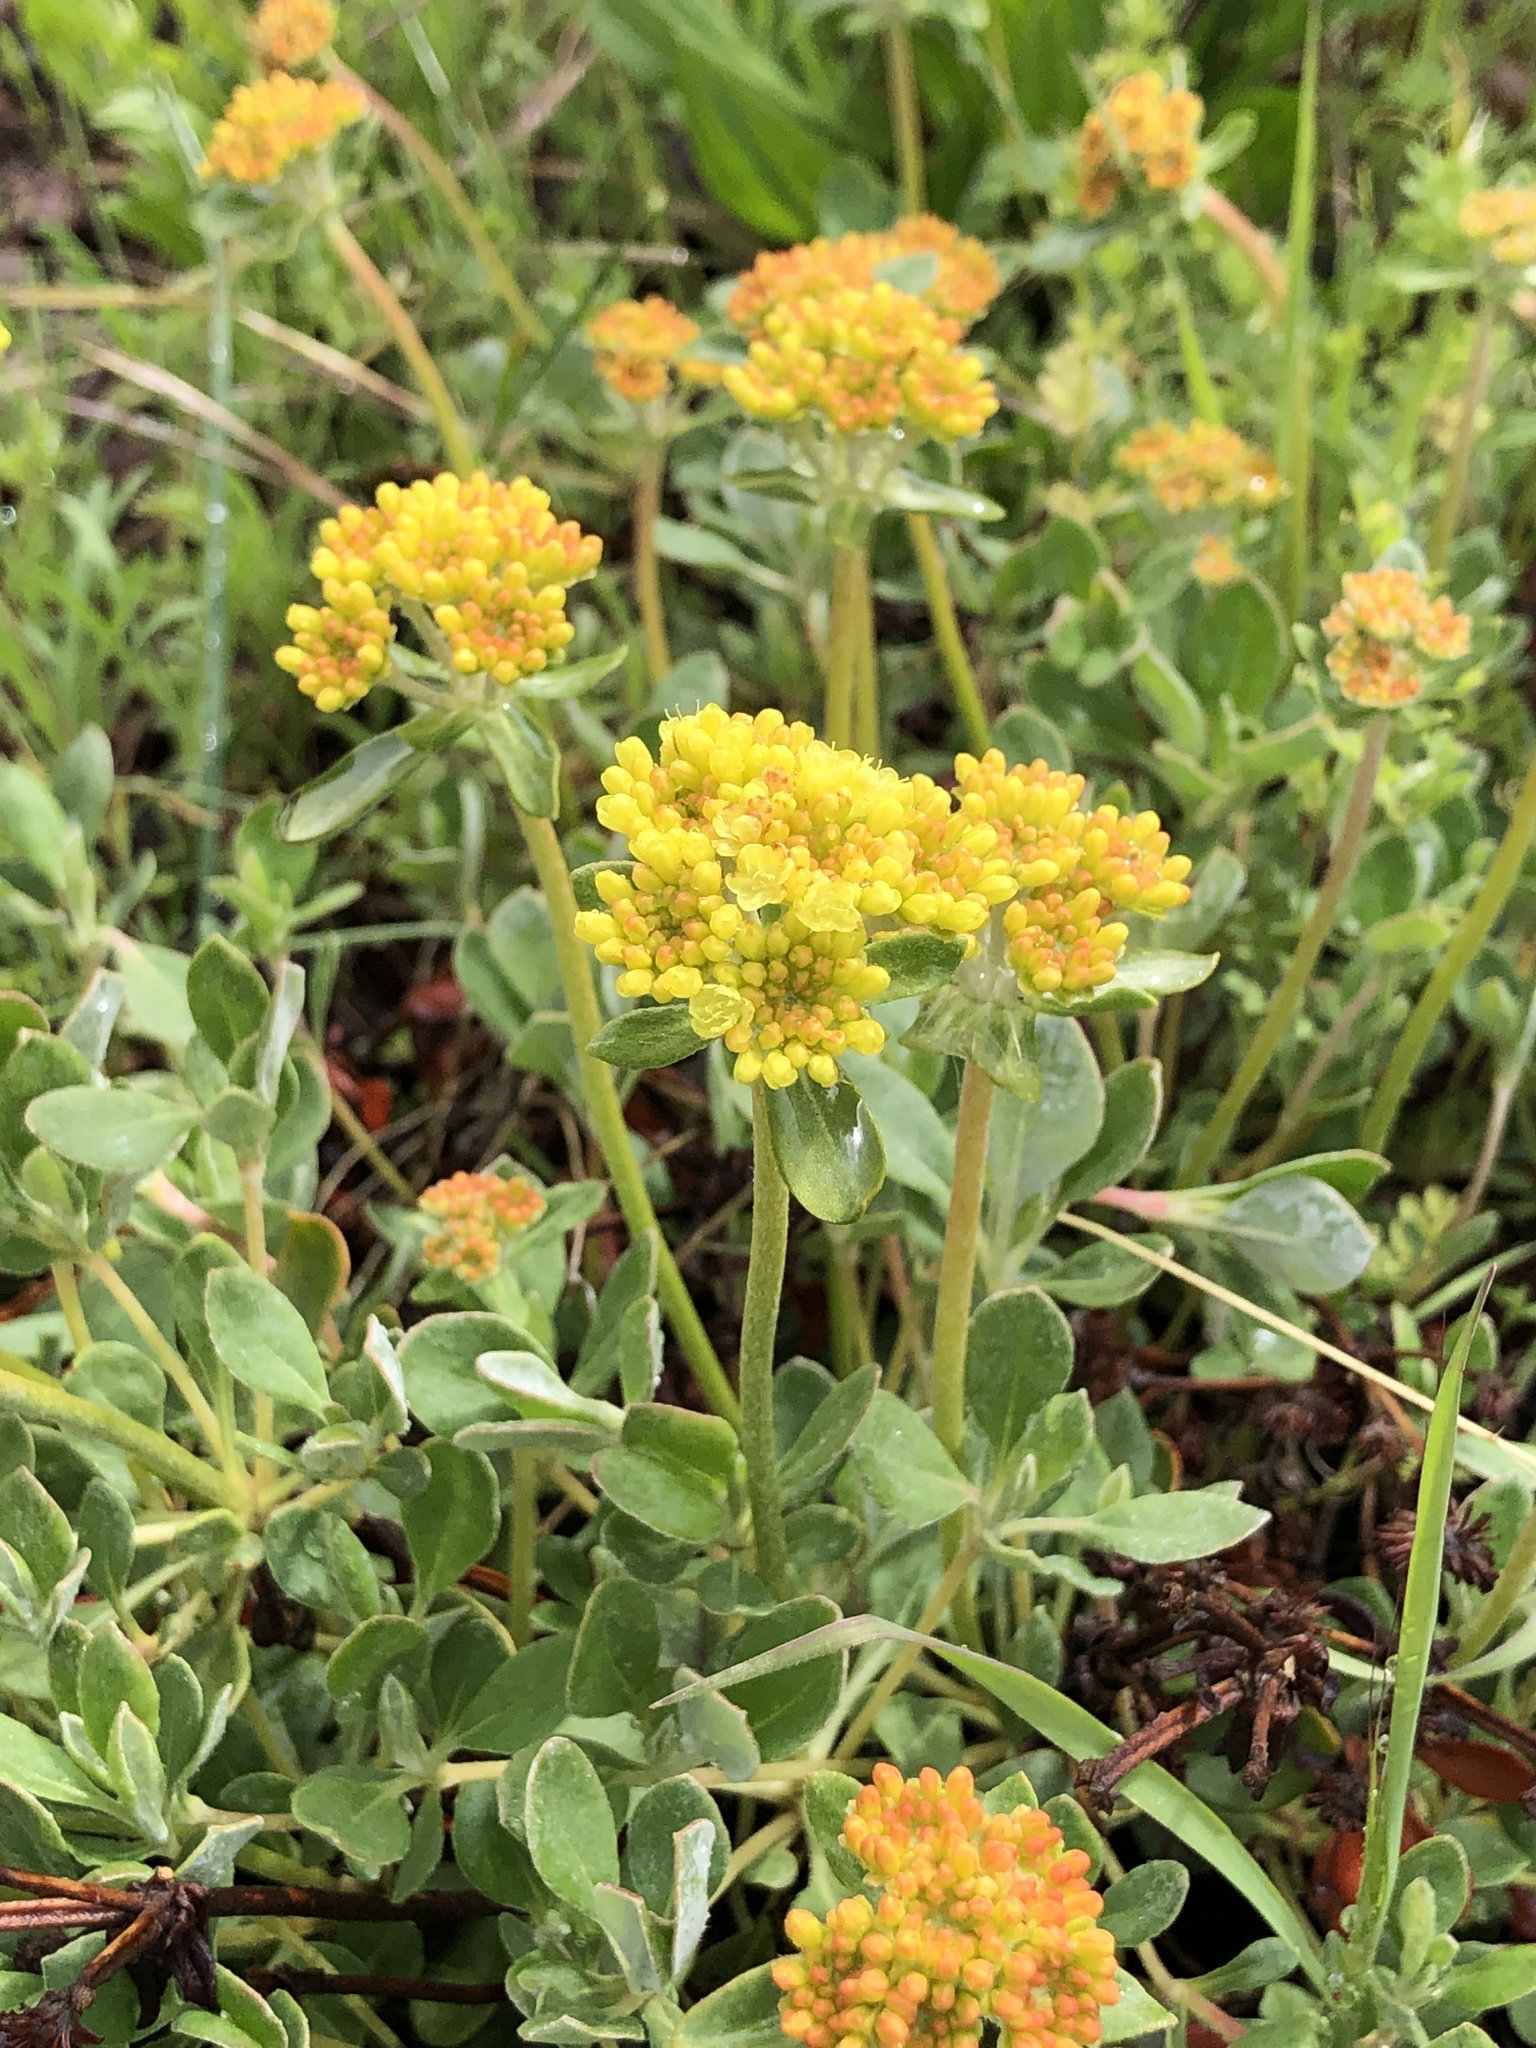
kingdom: Plantae
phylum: Tracheophyta
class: Magnoliopsida
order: Caryophyllales
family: Polygonaceae
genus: Eriogonum
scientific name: Eriogonum umbellatum
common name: Sulfur-buckwheat
